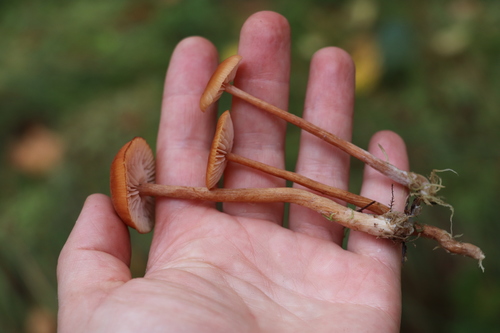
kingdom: Fungi
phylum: Basidiomycota
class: Agaricomycetes
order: Agaricales
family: Hydnangiaceae
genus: Laccaria
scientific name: Laccaria laccata
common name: Deceiver
